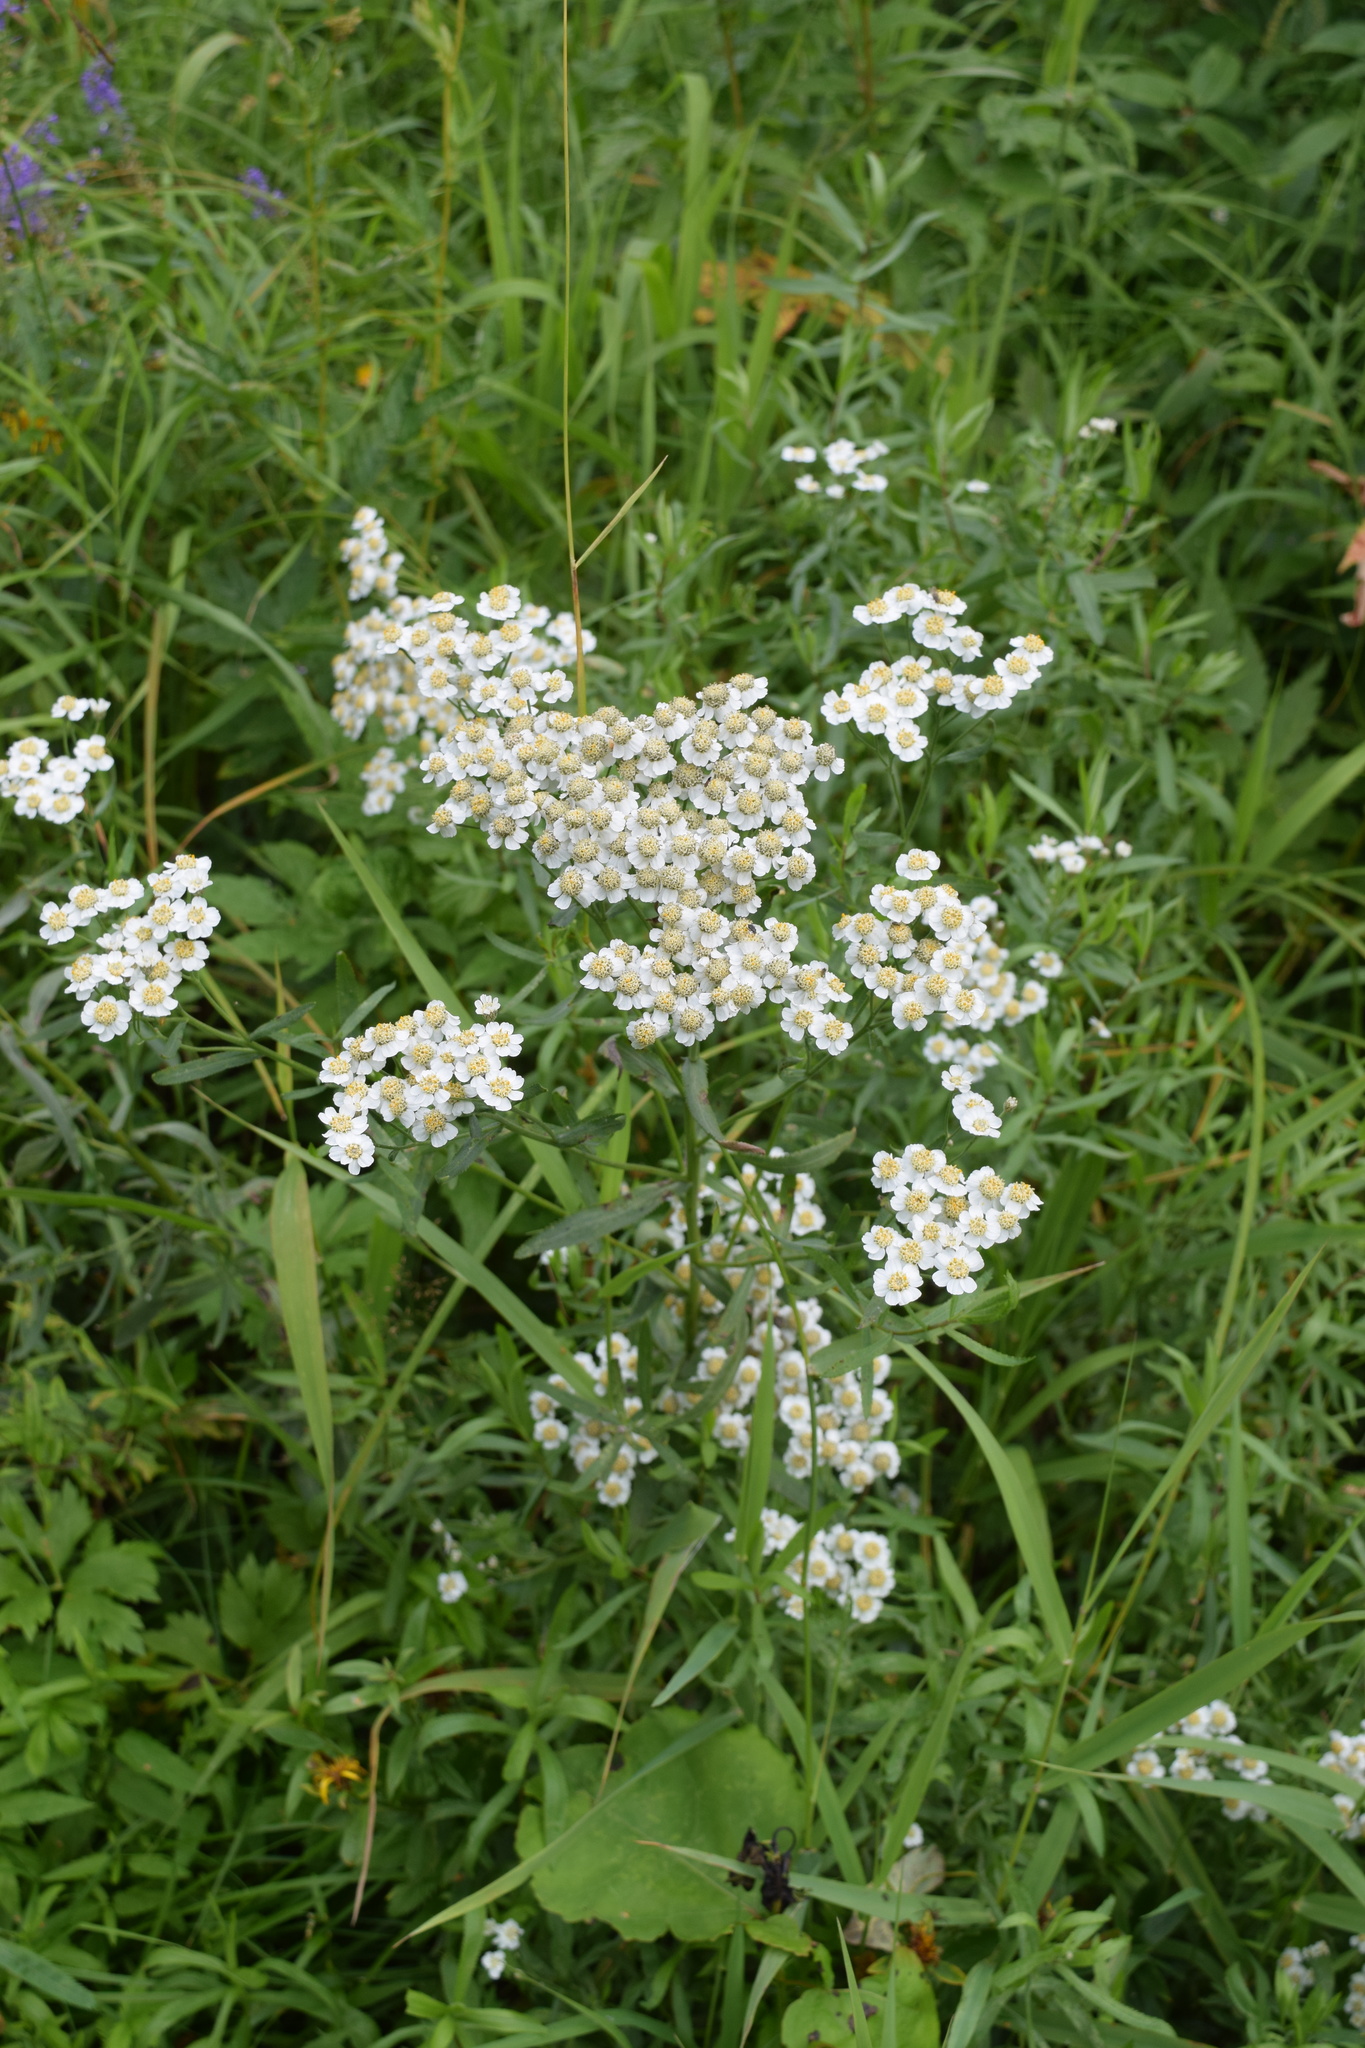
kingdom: Plantae
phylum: Tracheophyta
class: Magnoliopsida
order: Asterales
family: Asteraceae
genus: Achillea
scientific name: Achillea salicifolia
